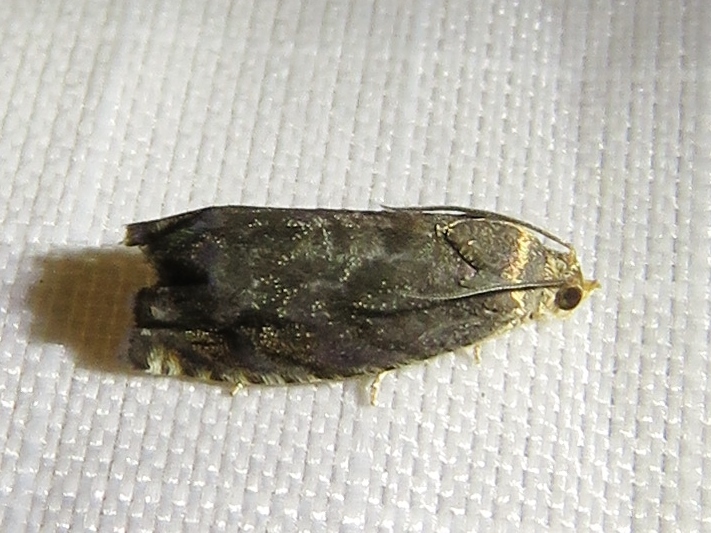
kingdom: Animalia
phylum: Arthropoda
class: Insecta
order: Lepidoptera
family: Tortricidae
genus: Cydia
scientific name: Cydia caryana
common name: Hickory shuckworm moth
